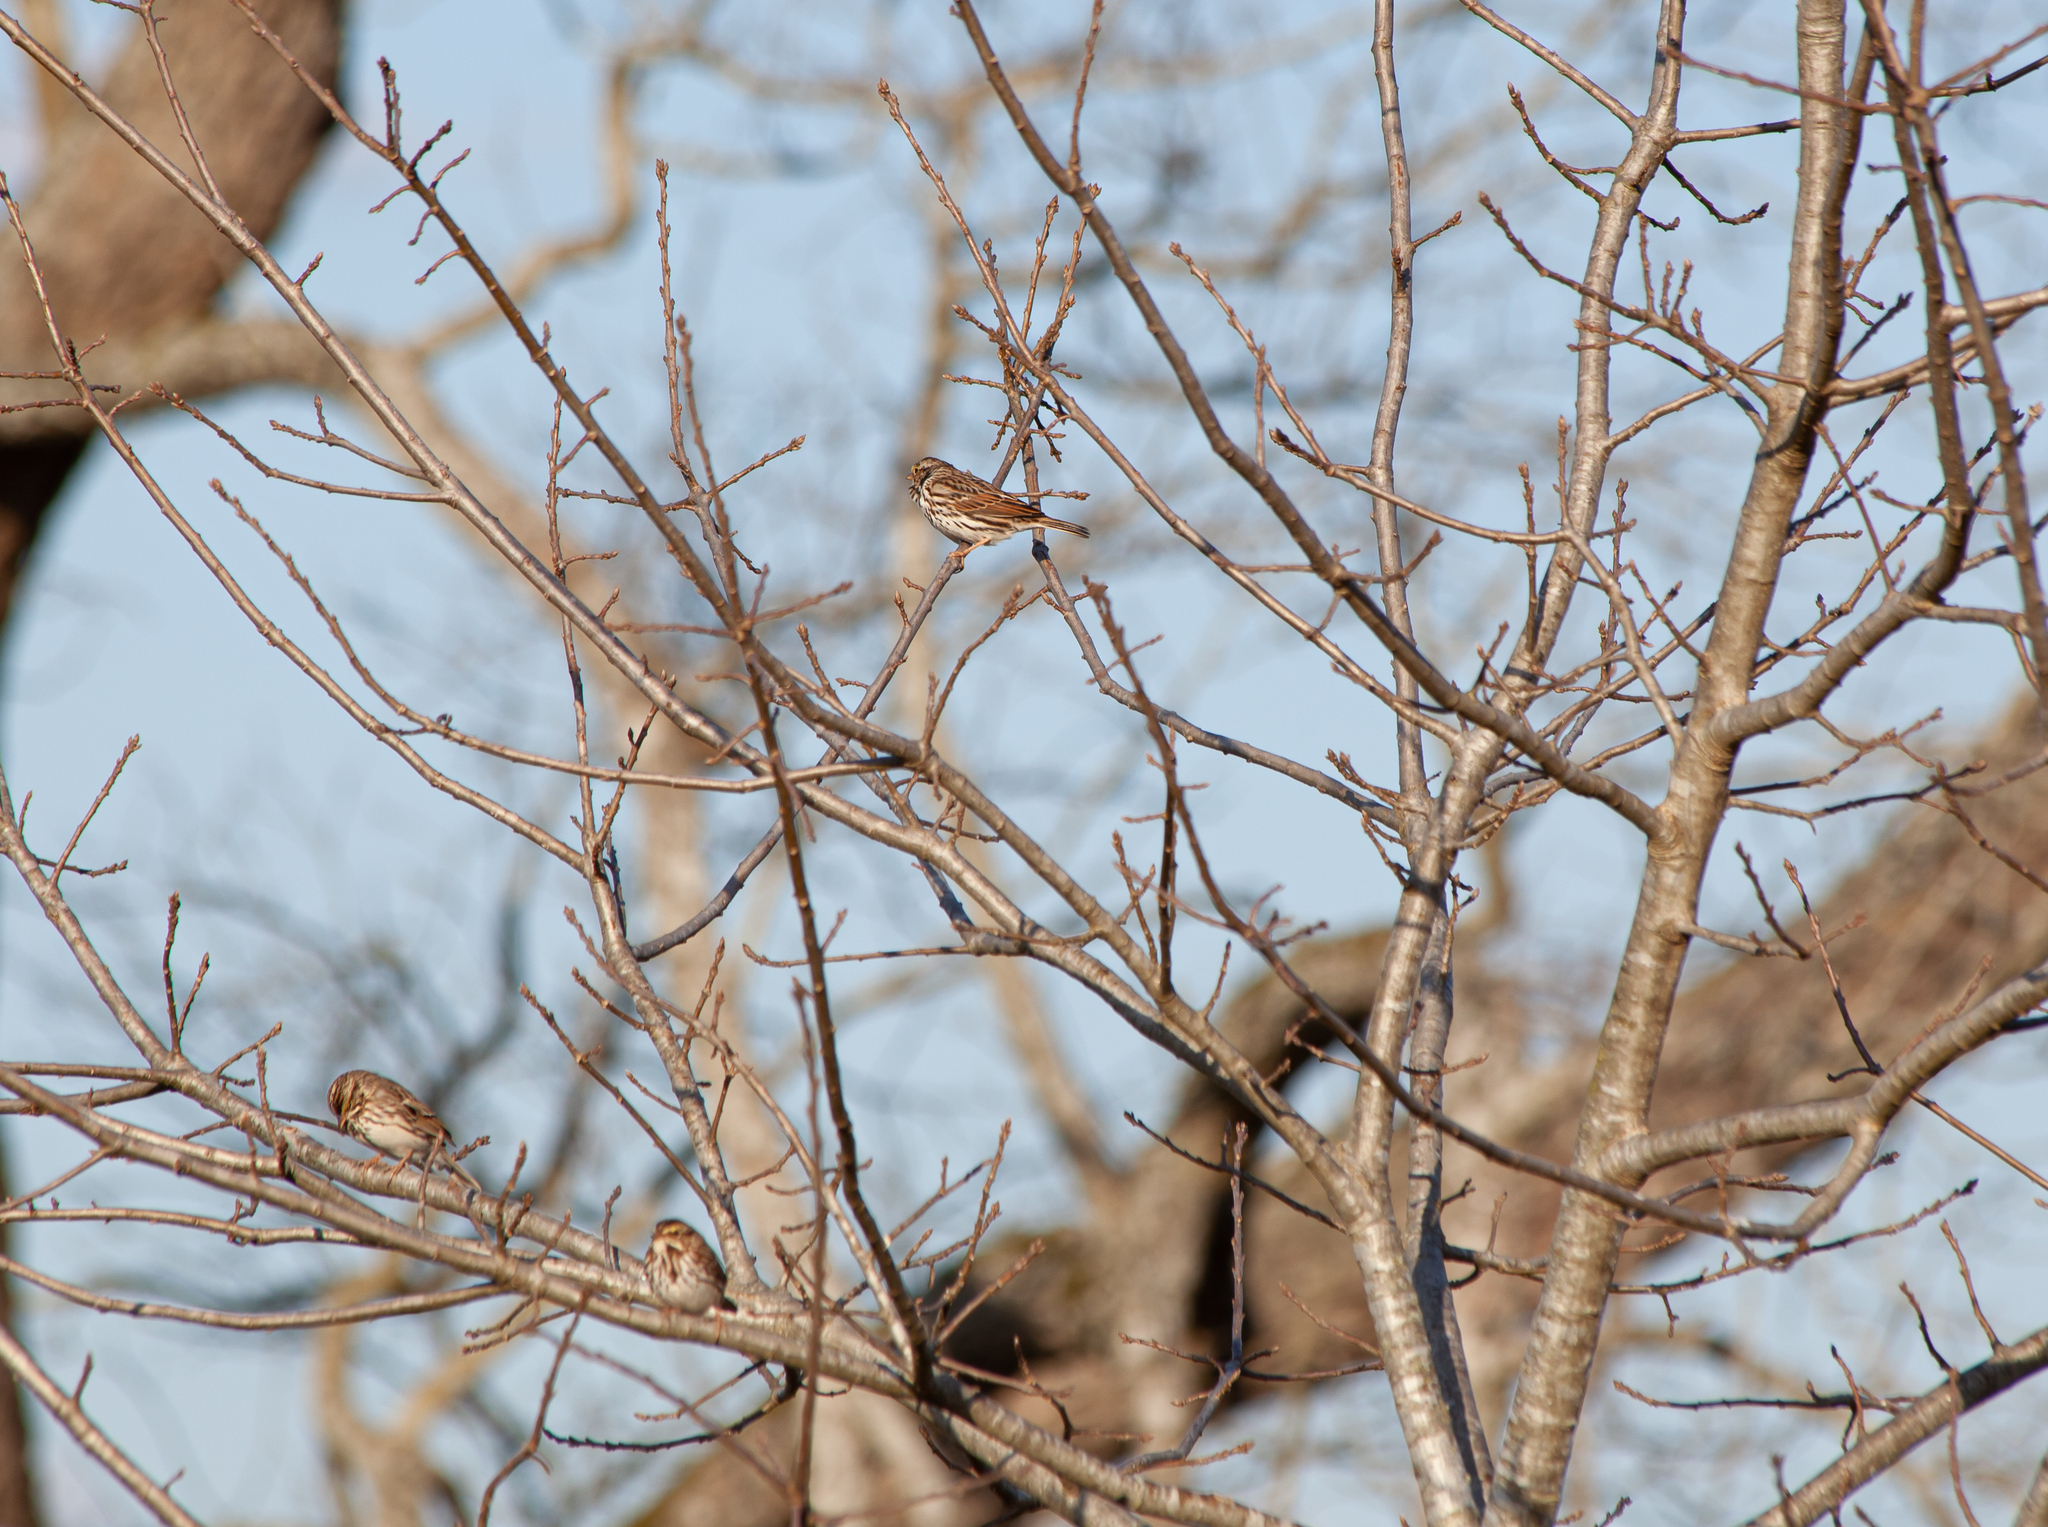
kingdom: Animalia
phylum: Chordata
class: Aves
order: Passeriformes
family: Passerellidae
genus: Passerculus
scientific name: Passerculus sandwichensis
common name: Savannah sparrow
